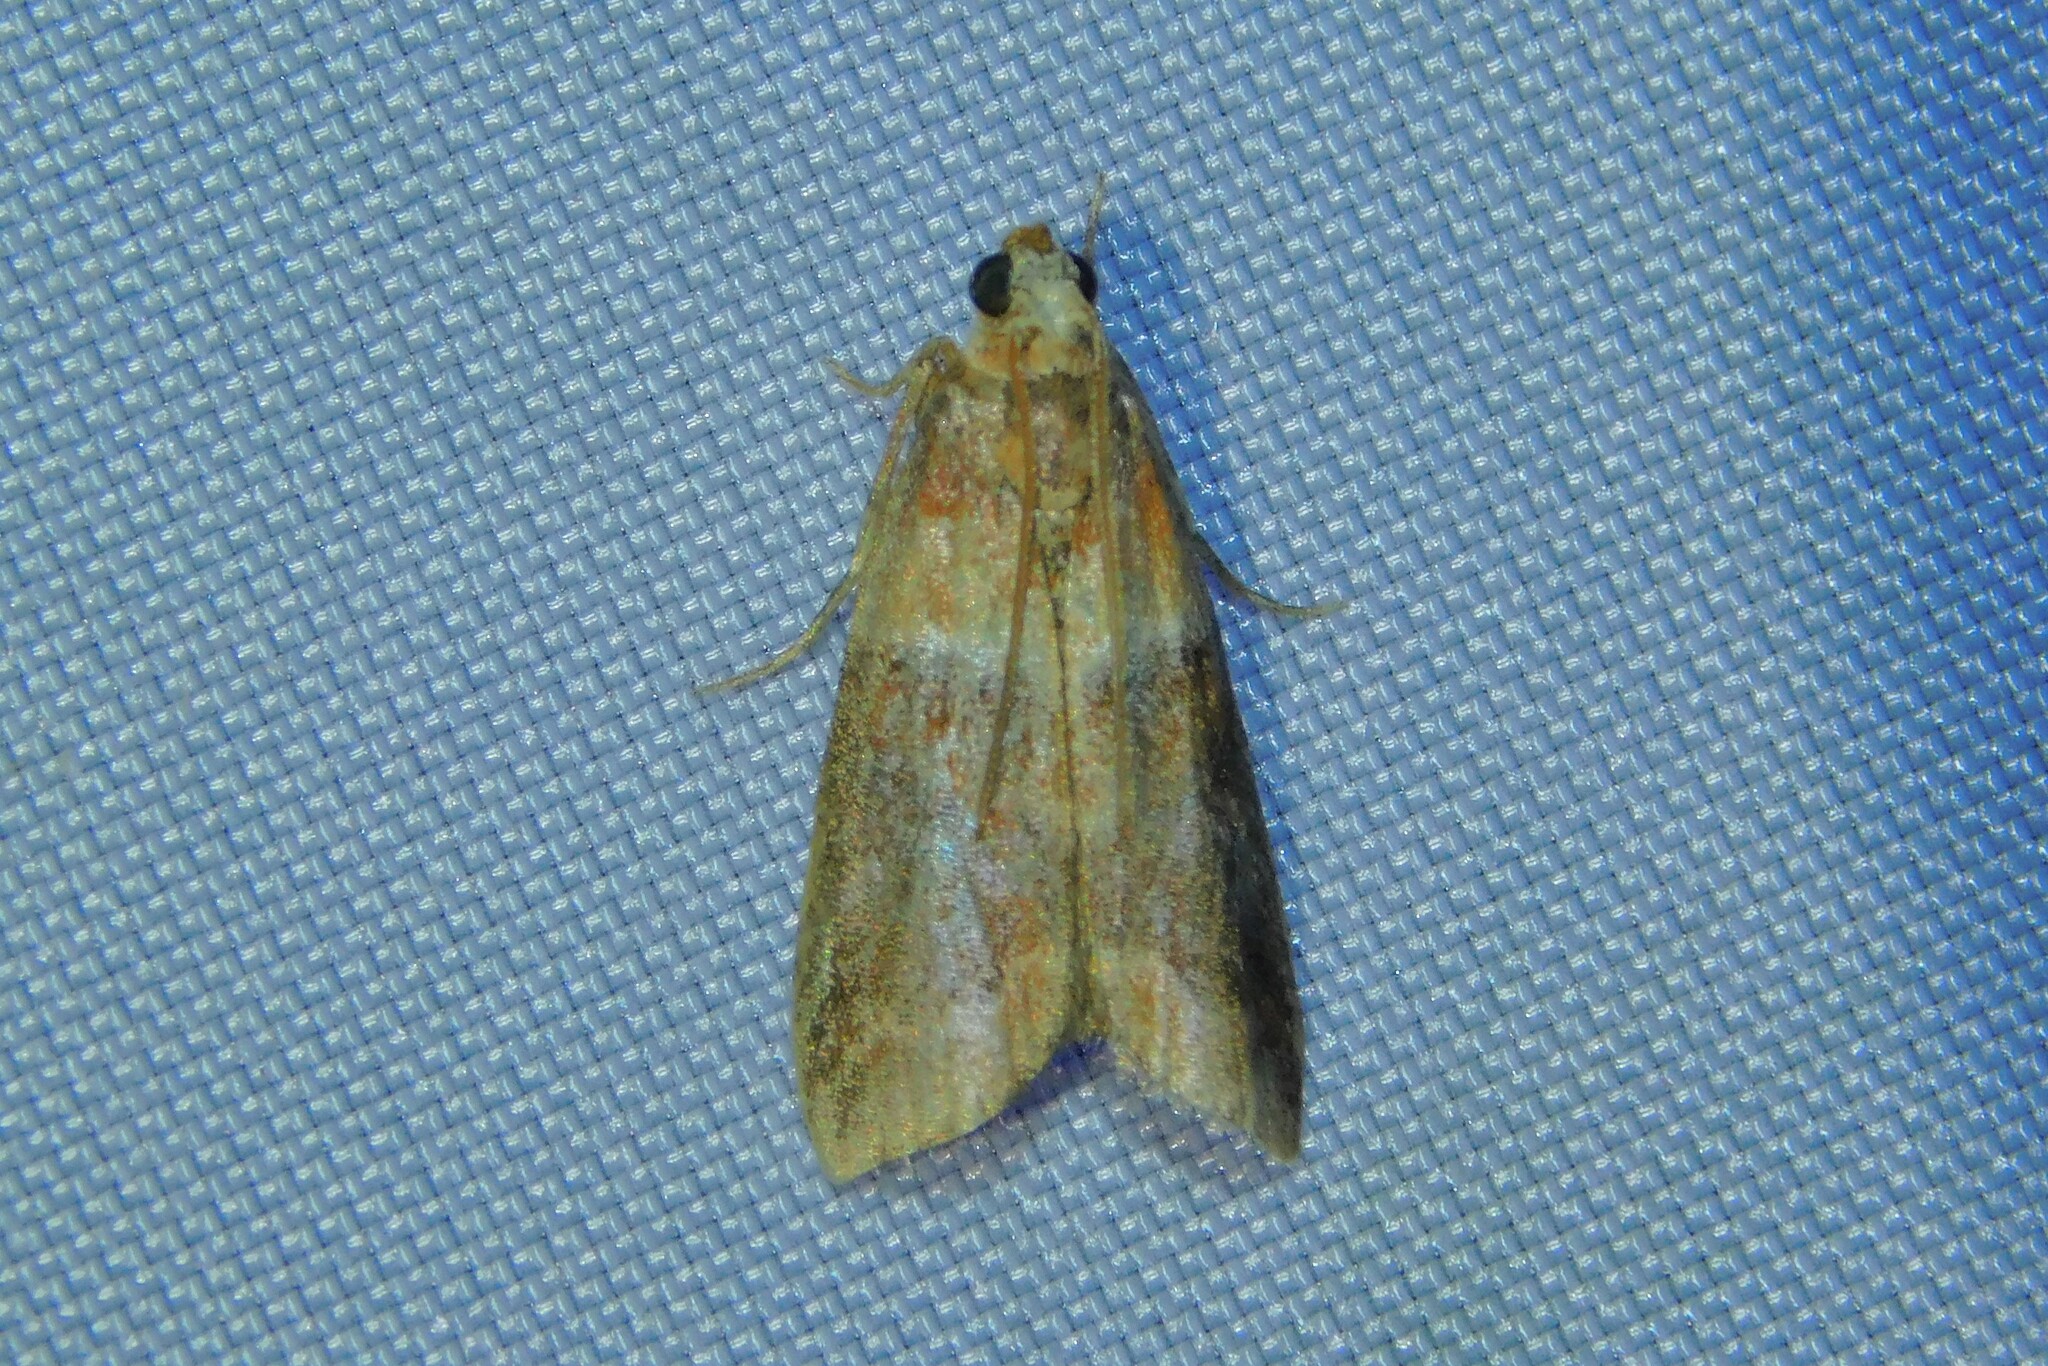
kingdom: Animalia
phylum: Arthropoda
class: Insecta
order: Lepidoptera
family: Pyralidae
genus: Acrobasis
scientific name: Acrobasis
